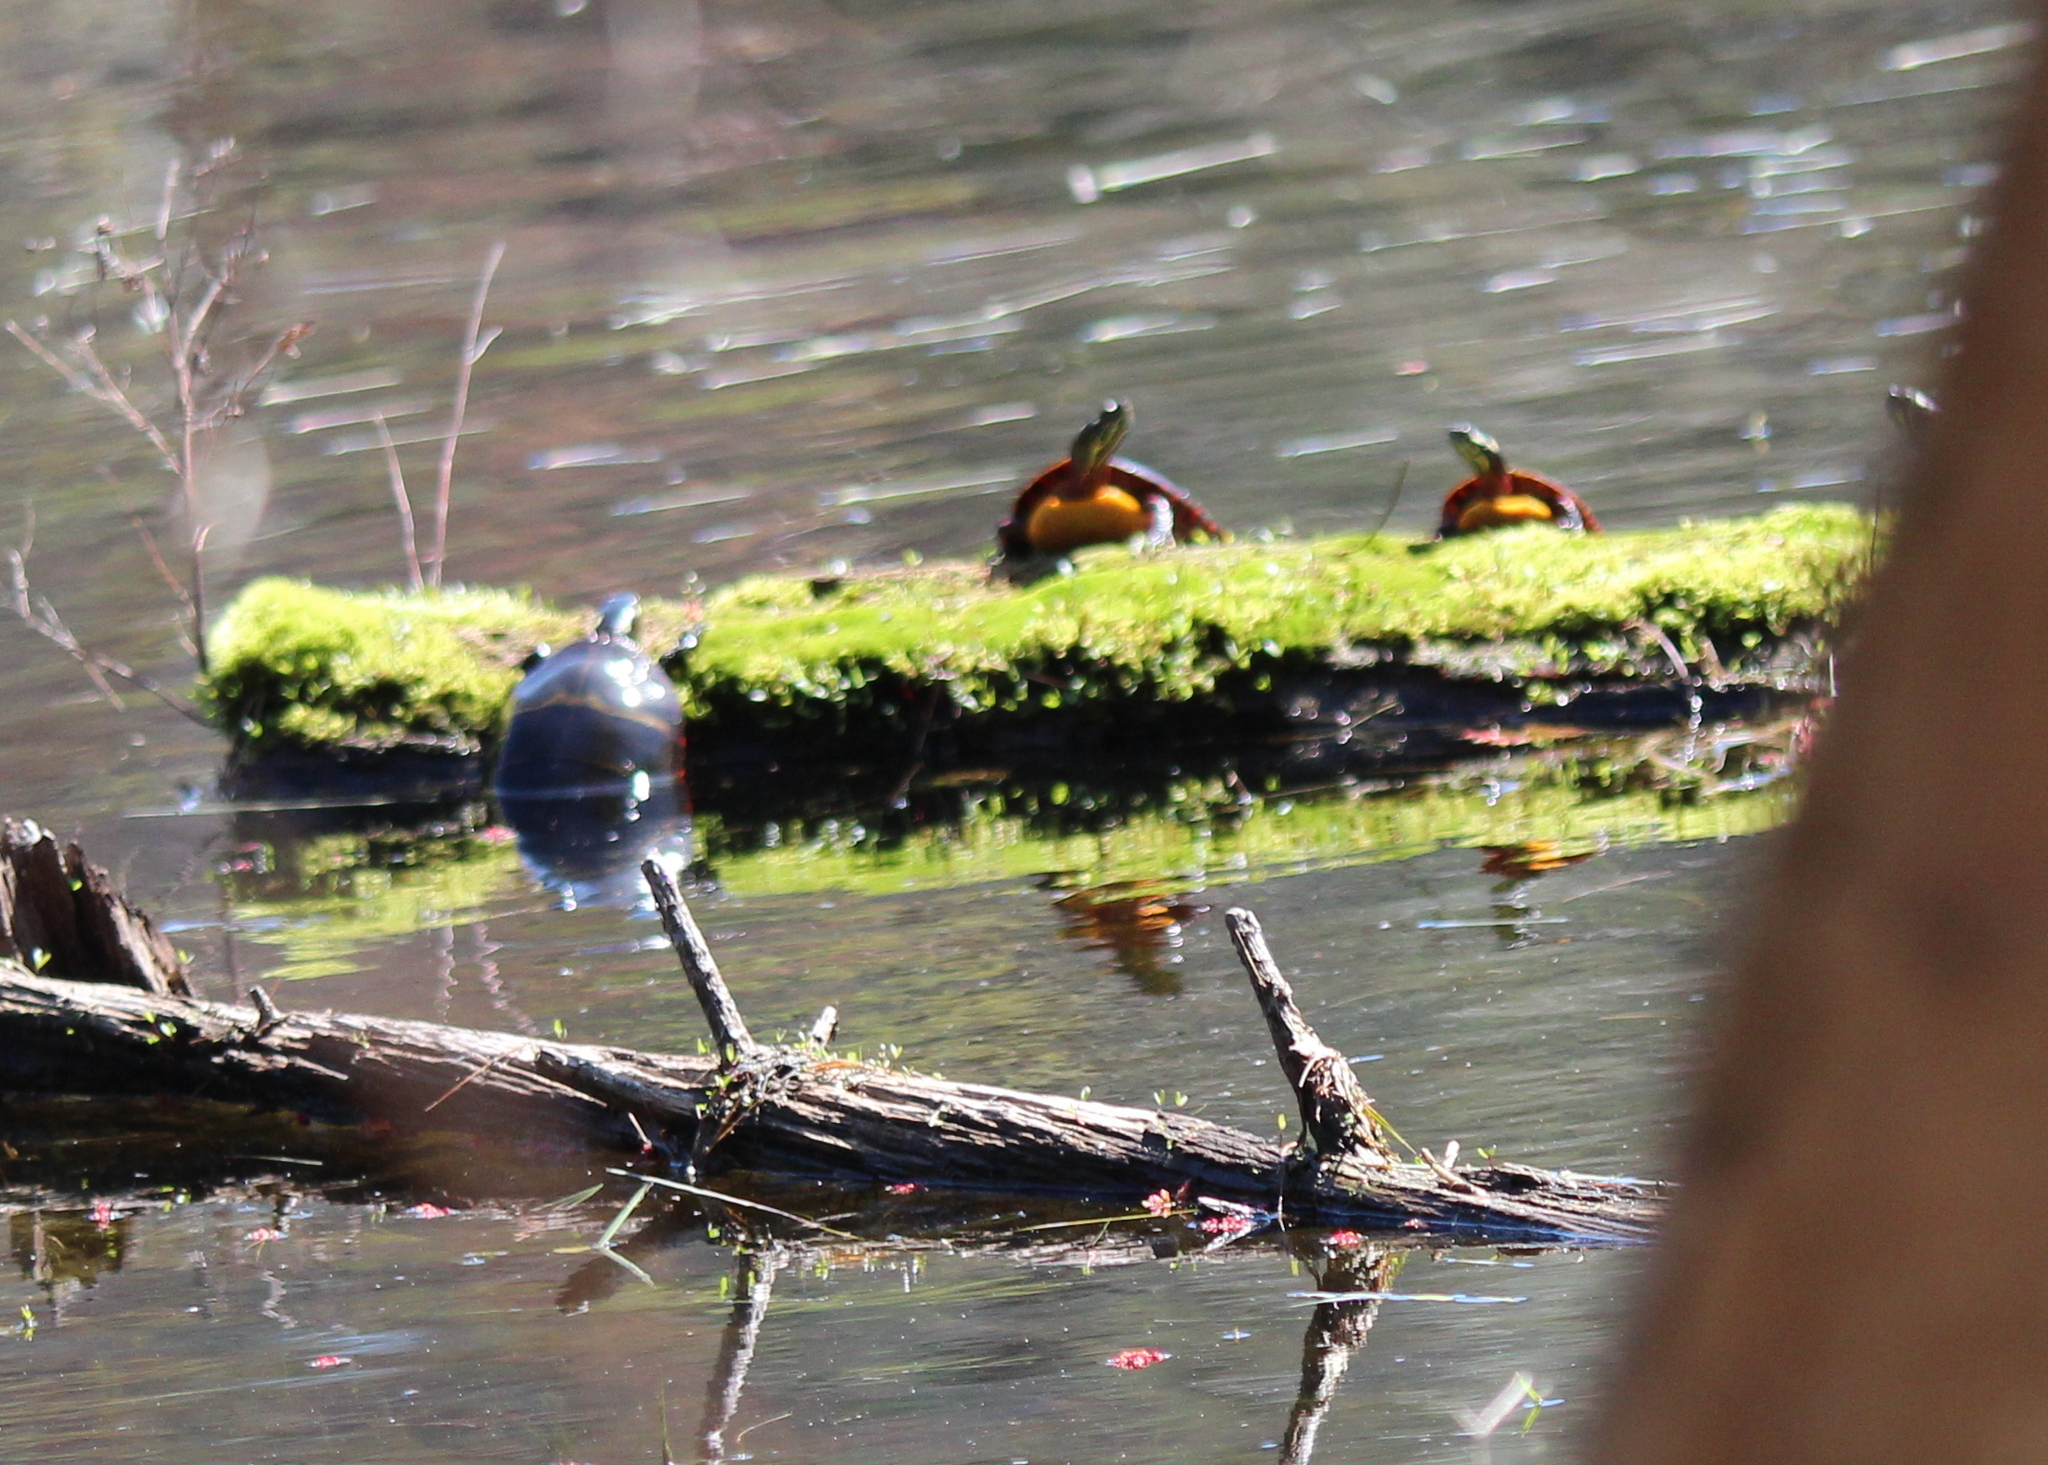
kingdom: Animalia
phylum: Chordata
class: Testudines
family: Emydidae
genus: Chrysemys
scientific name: Chrysemys picta
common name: Painted turtle
